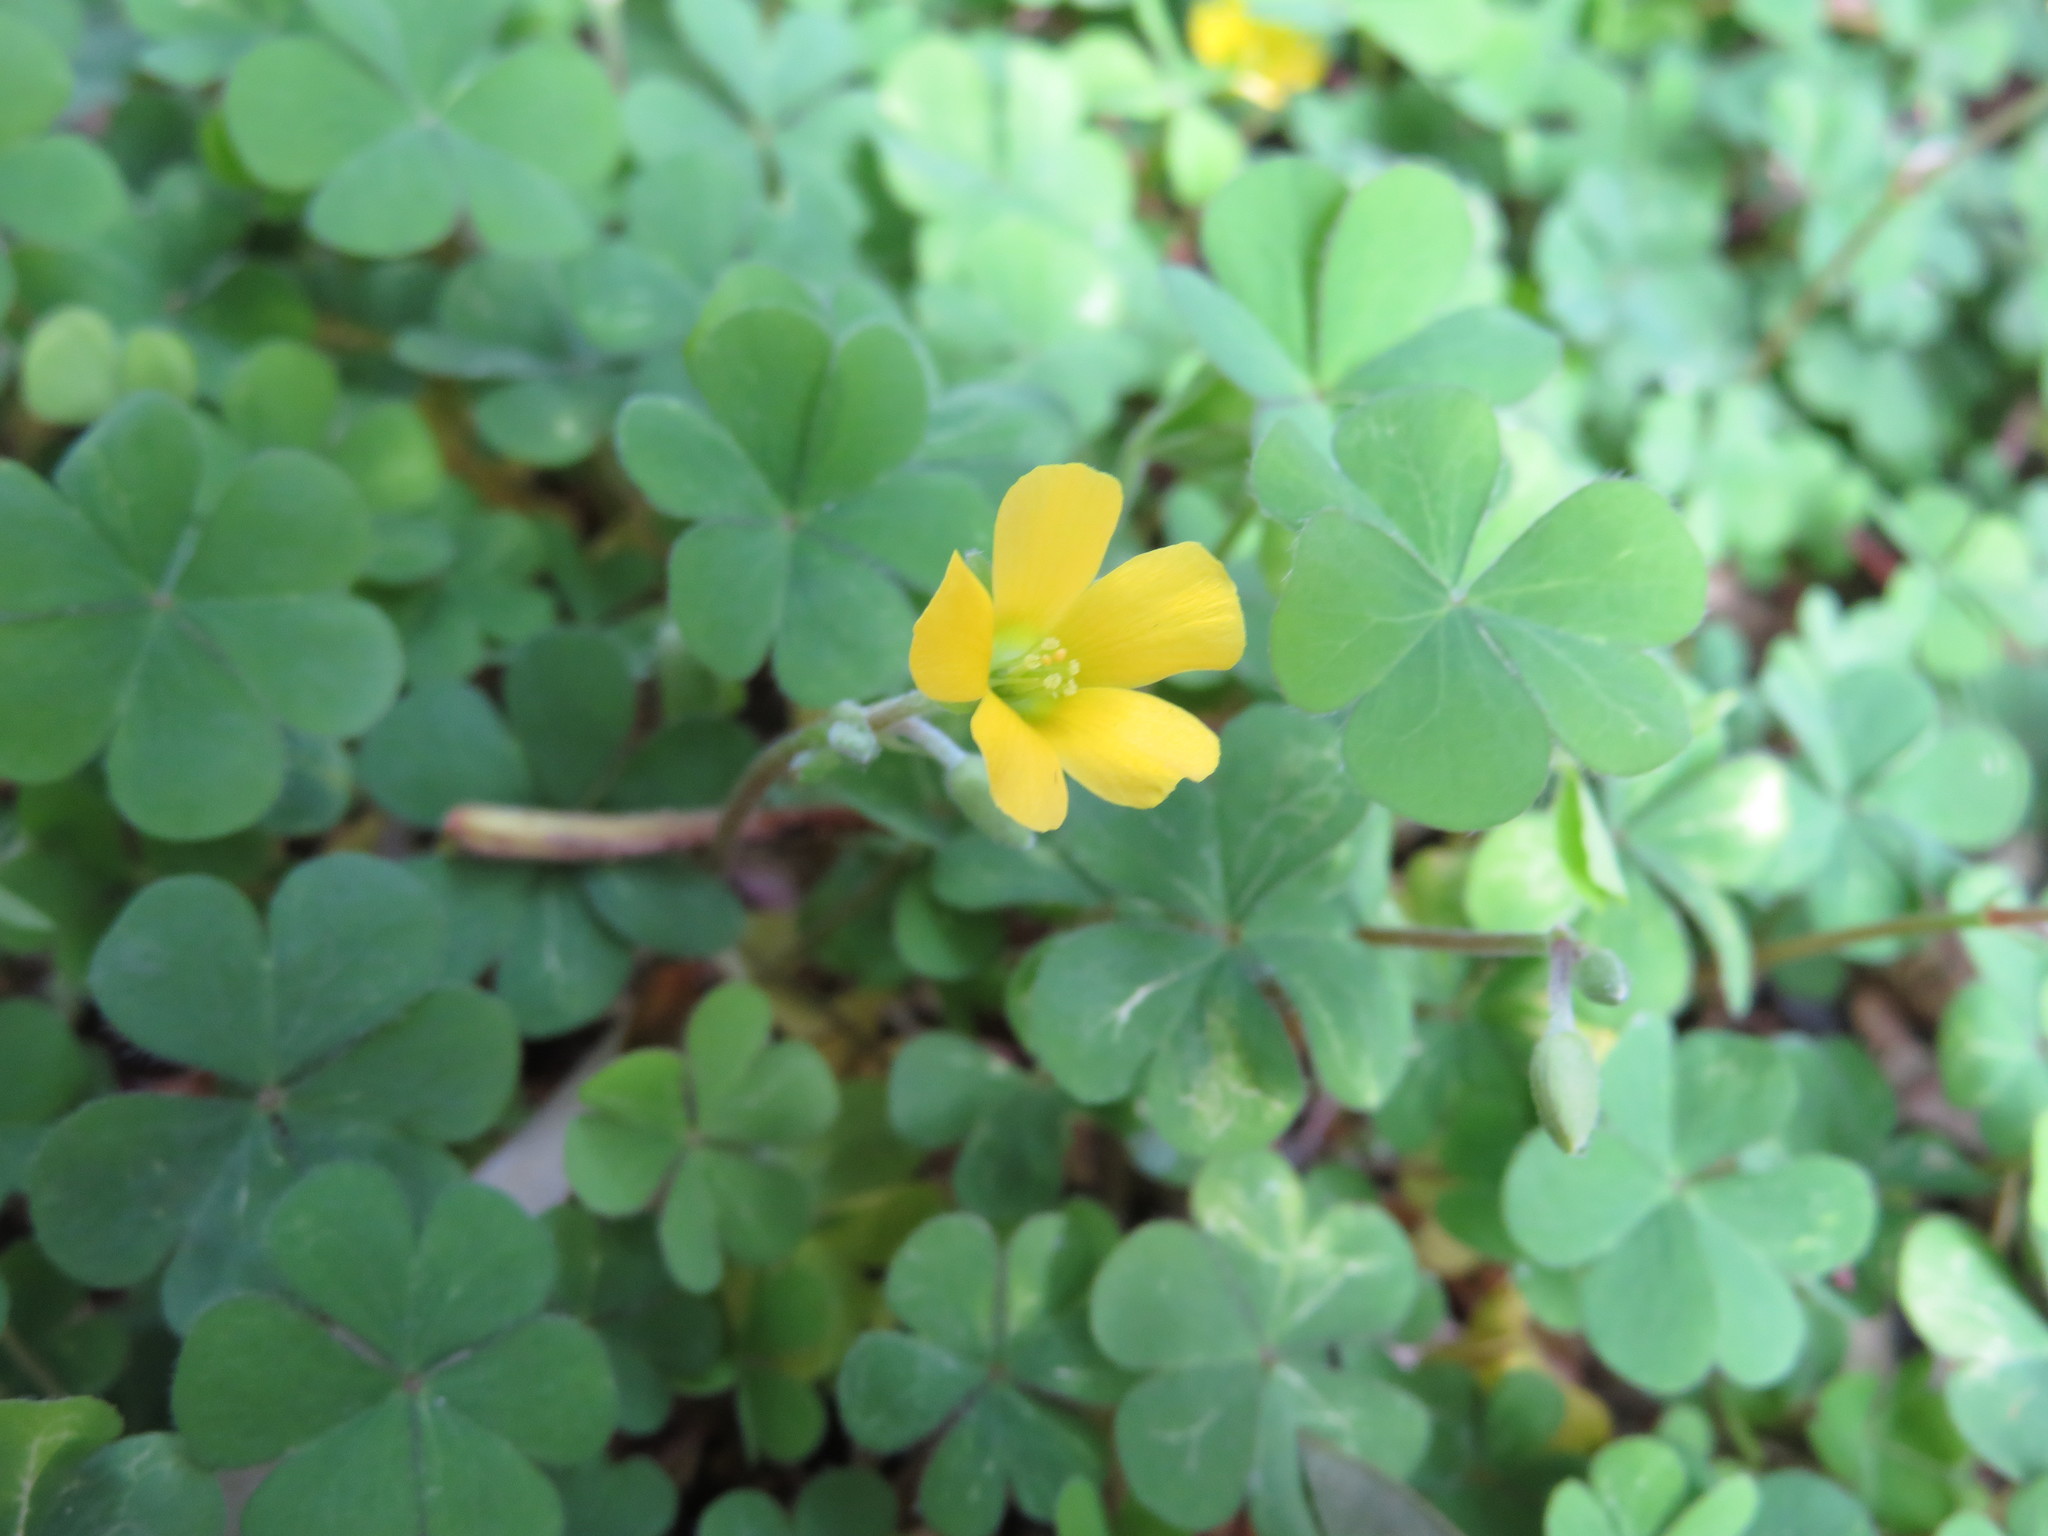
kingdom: Plantae
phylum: Tracheophyta
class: Magnoliopsida
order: Oxalidales
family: Oxalidaceae
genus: Oxalis
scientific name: Oxalis corniculata
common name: Procumbent yellow-sorrel
